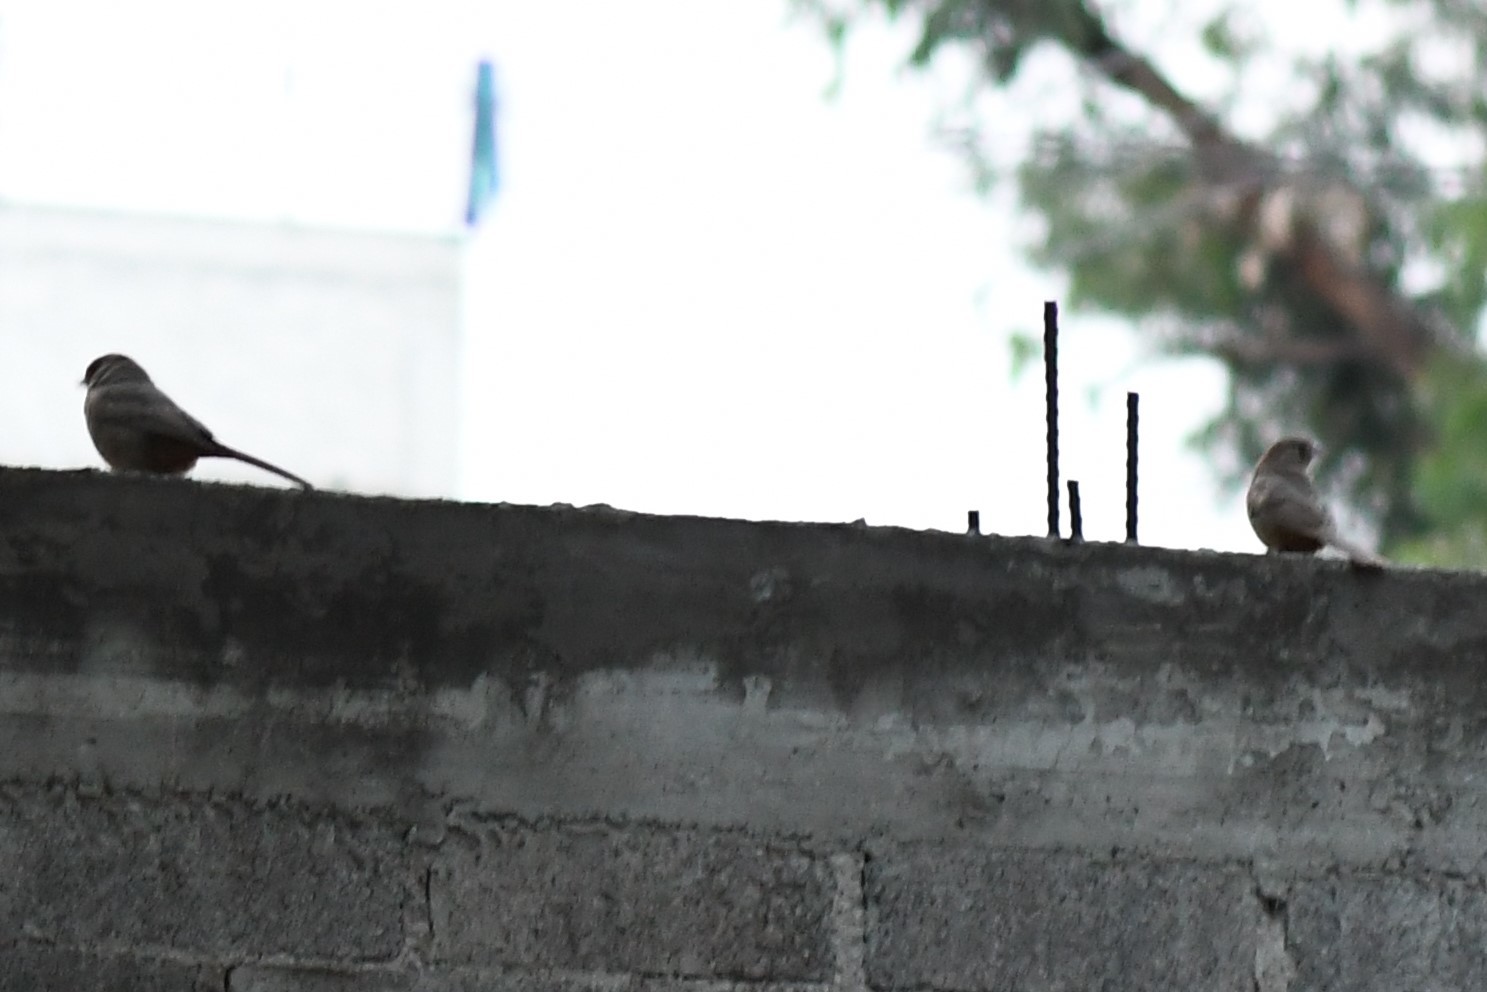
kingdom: Animalia
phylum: Chordata
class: Aves
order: Passeriformes
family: Passerellidae
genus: Melozone
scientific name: Melozone fusca
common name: Canyon towhee
